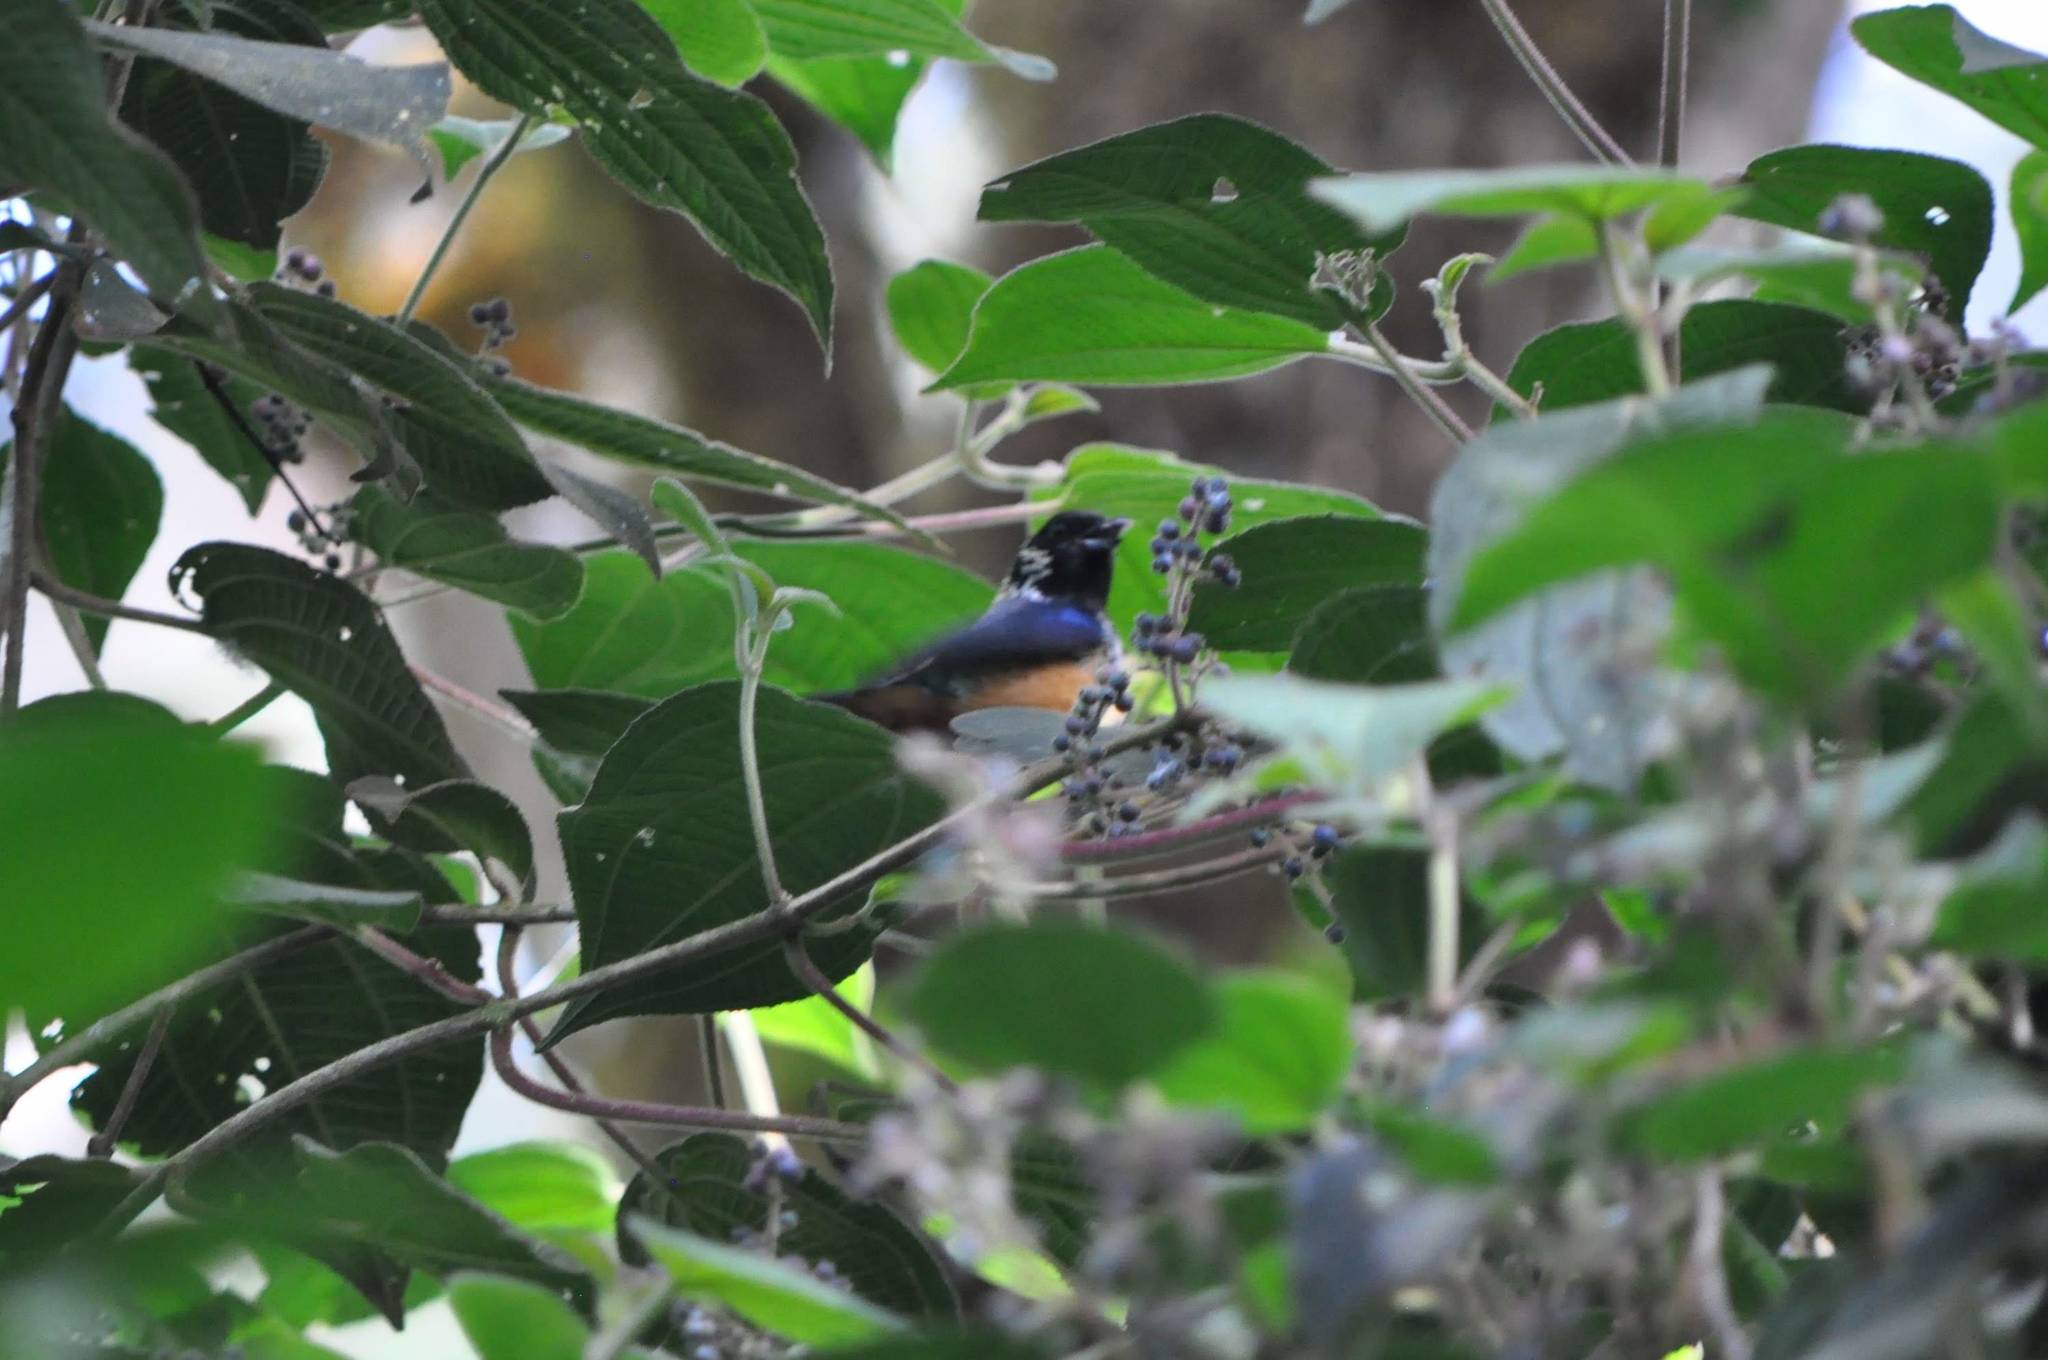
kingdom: Animalia
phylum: Chordata
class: Aves
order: Passeriformes
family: Thraupidae
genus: Tangara
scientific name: Tangara dowii
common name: Spangle-cheeked tanager
